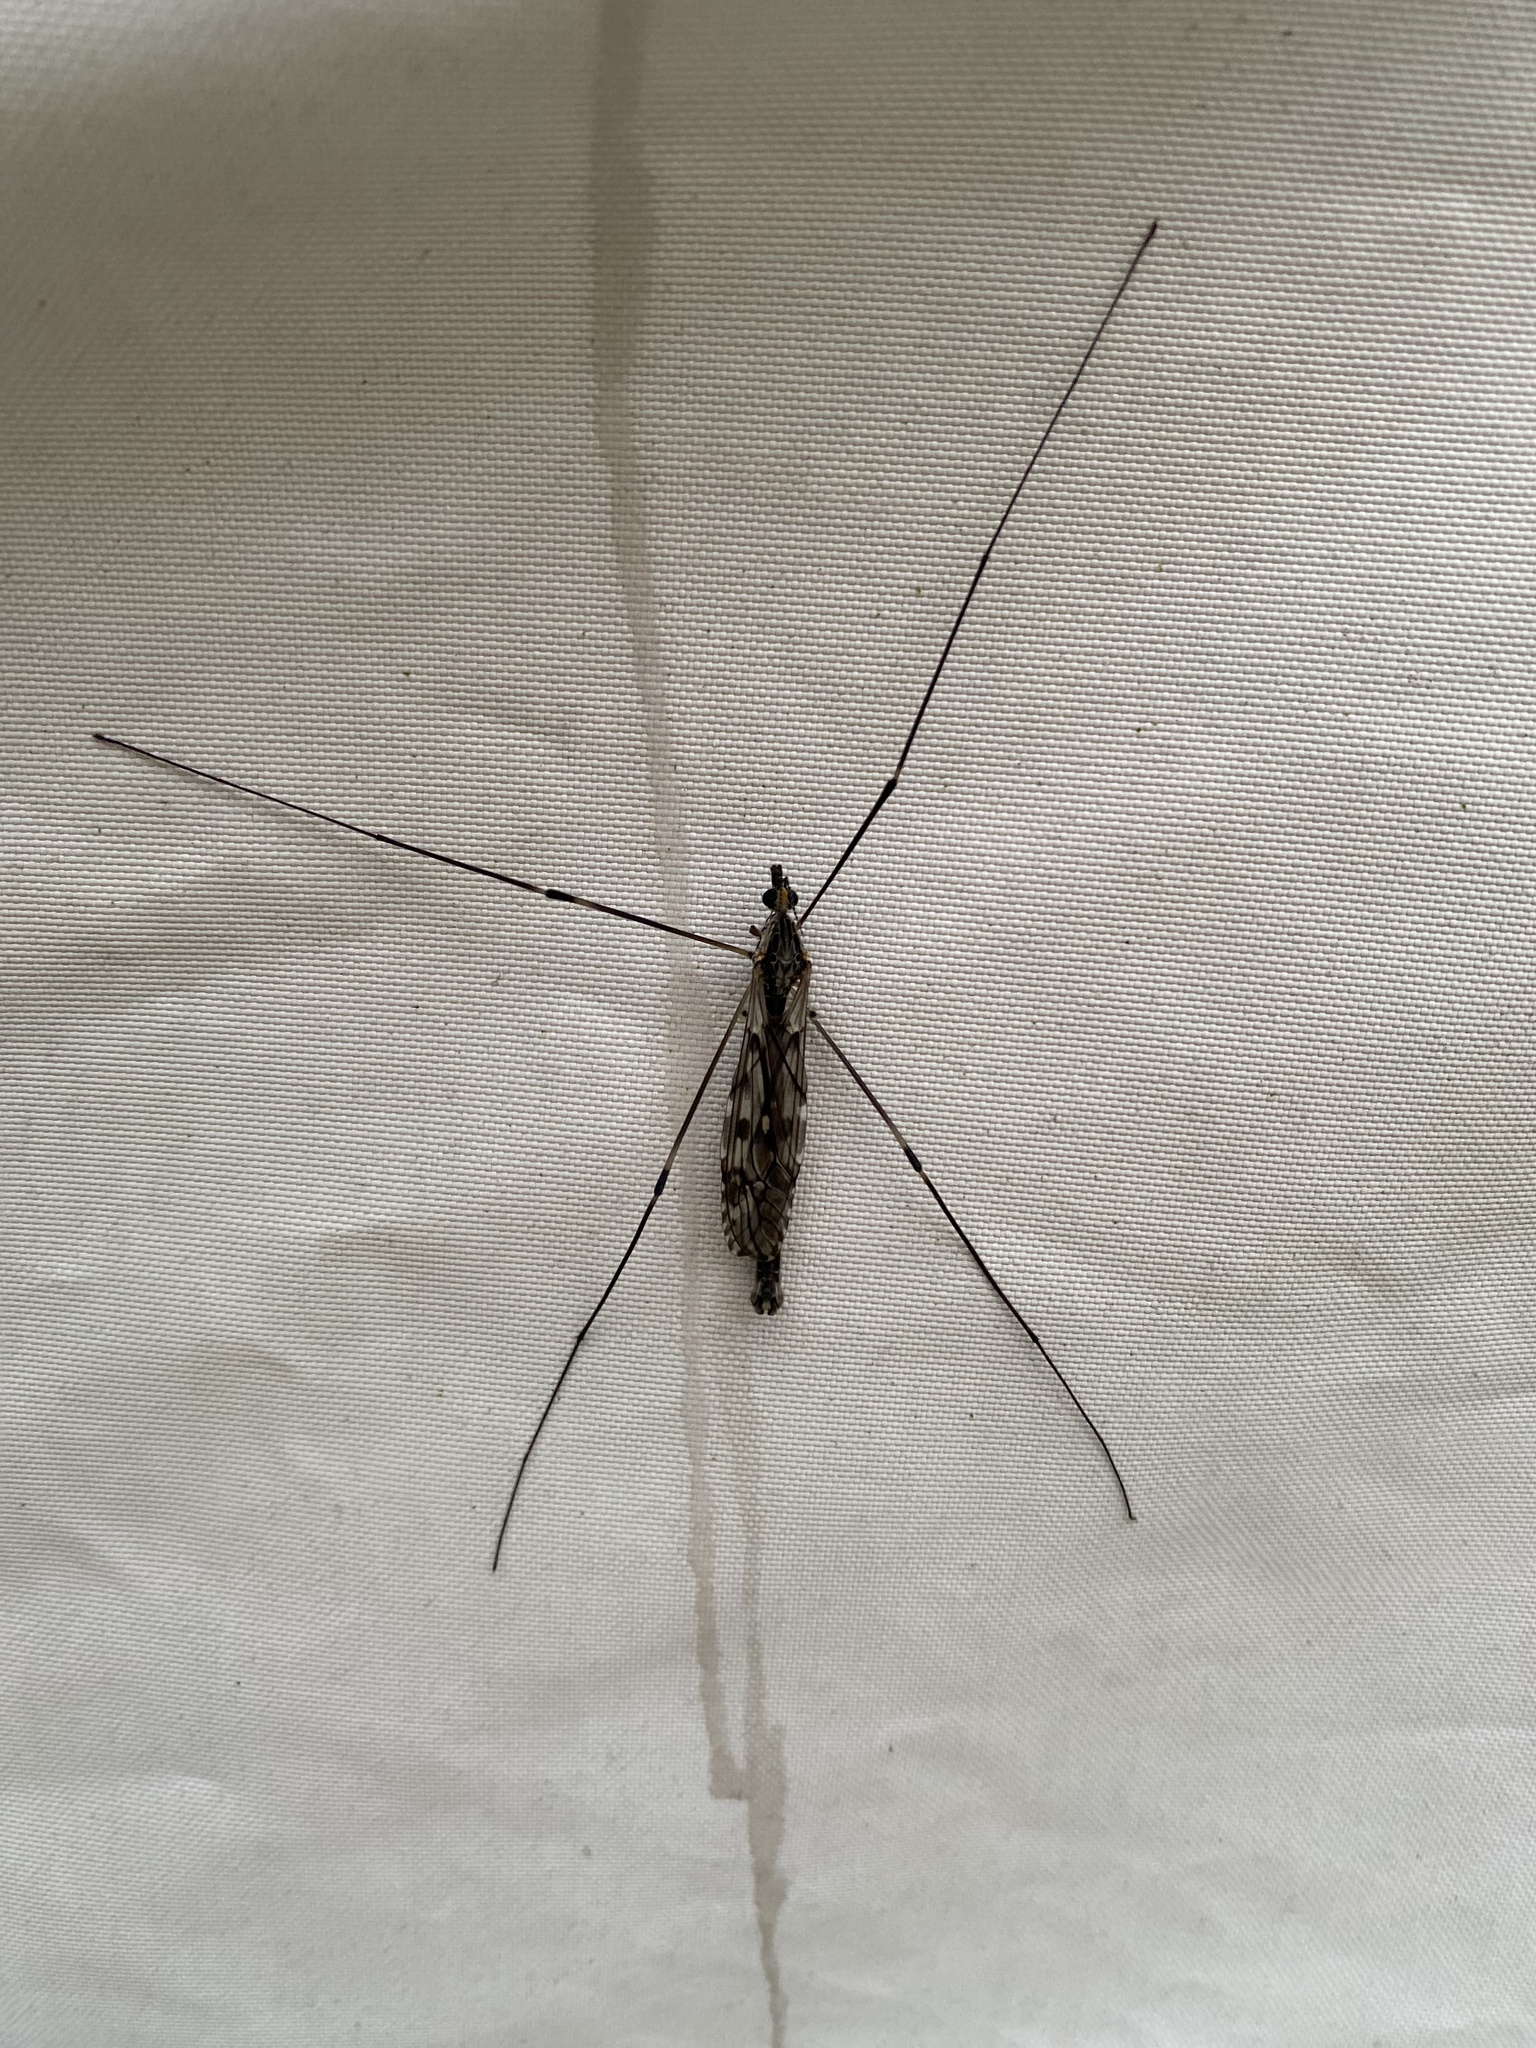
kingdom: Animalia
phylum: Arthropoda
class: Insecta
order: Diptera
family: Tipulidae
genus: Tipula
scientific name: Tipula abdominalis
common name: Giant crane fly
